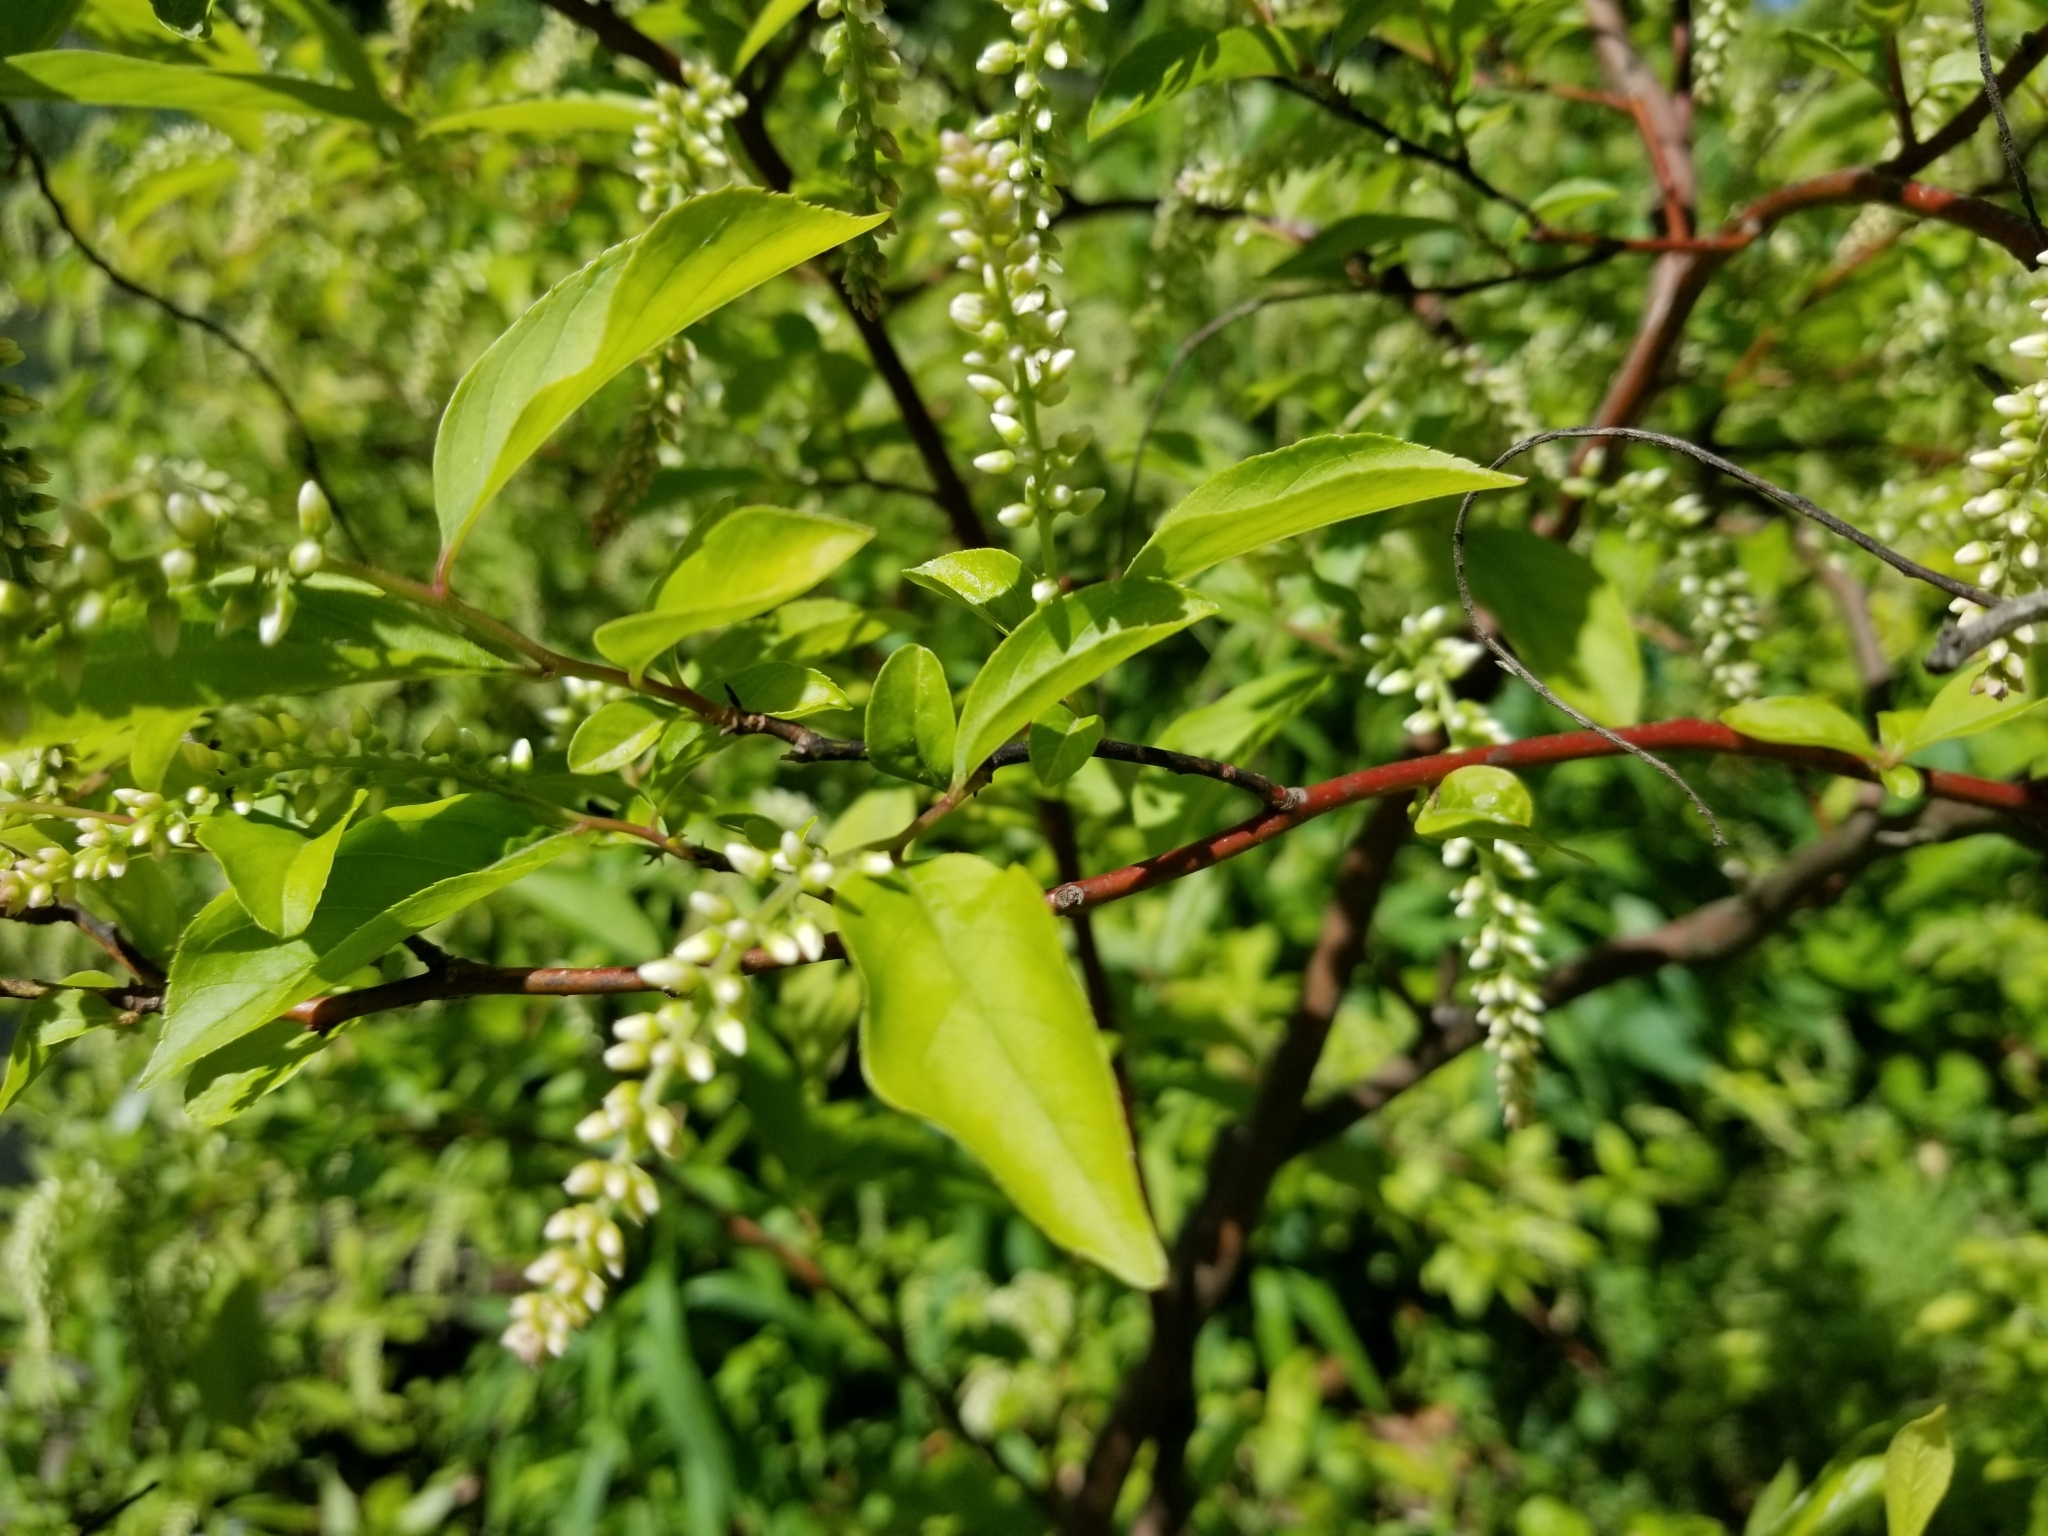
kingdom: Plantae
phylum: Tracheophyta
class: Magnoliopsida
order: Saxifragales
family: Iteaceae
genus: Itea
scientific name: Itea virginica
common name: Sweetspire
